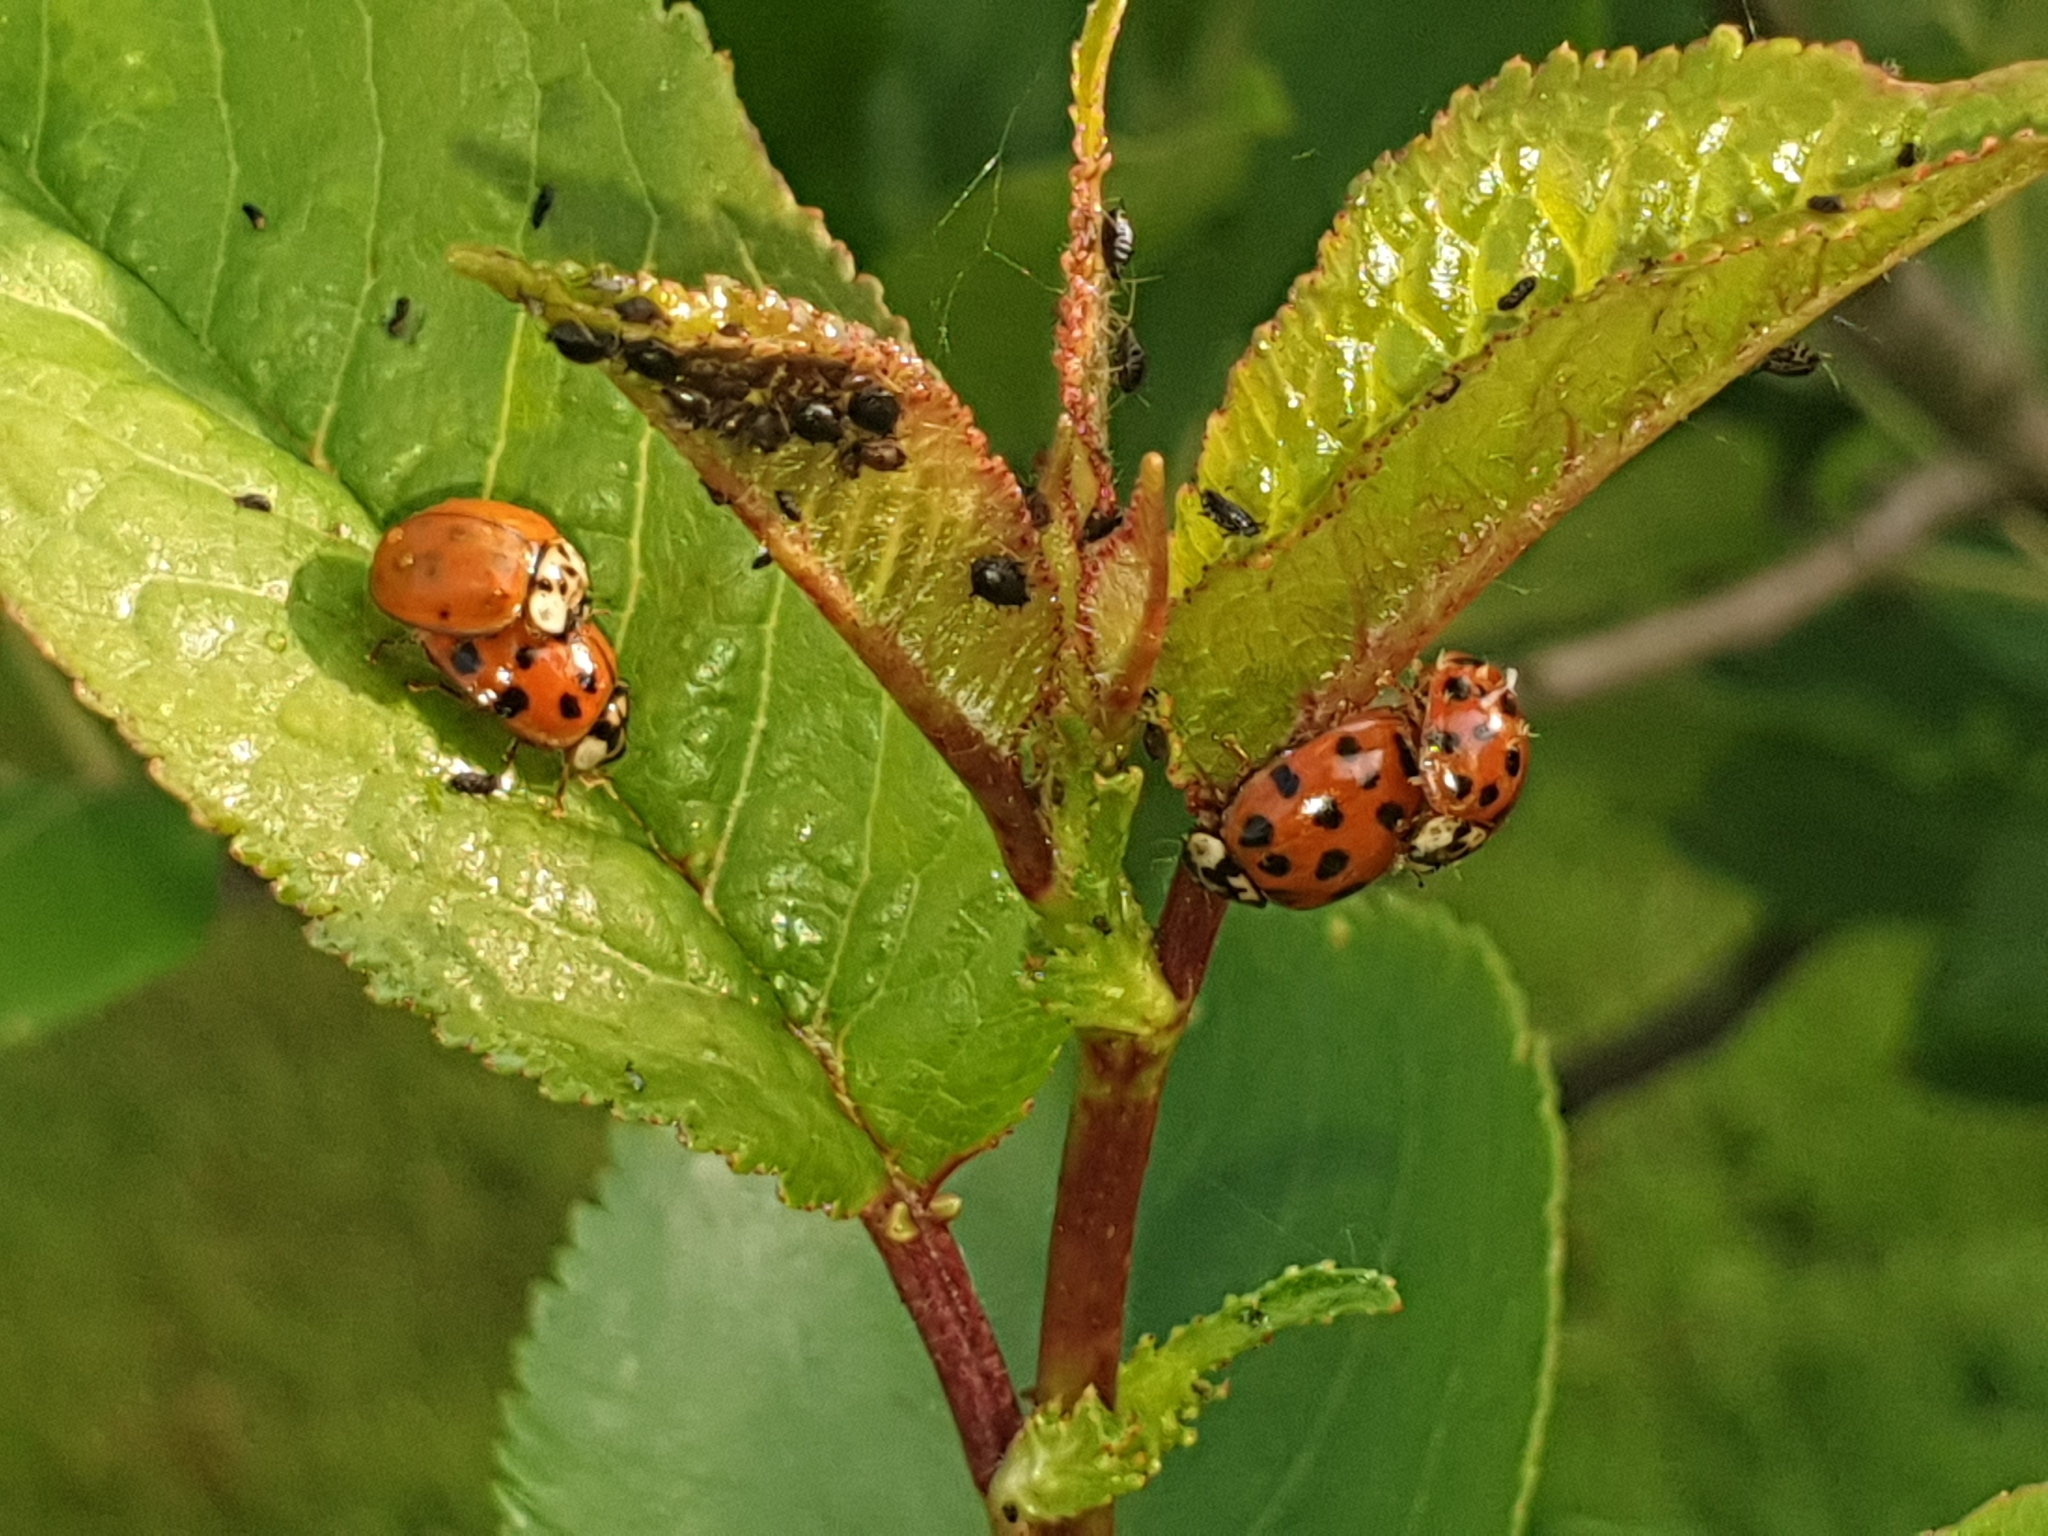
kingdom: Animalia
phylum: Arthropoda
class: Insecta
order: Coleoptera
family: Coccinellidae
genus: Harmonia
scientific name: Harmonia axyridis
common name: Harlequin ladybird
